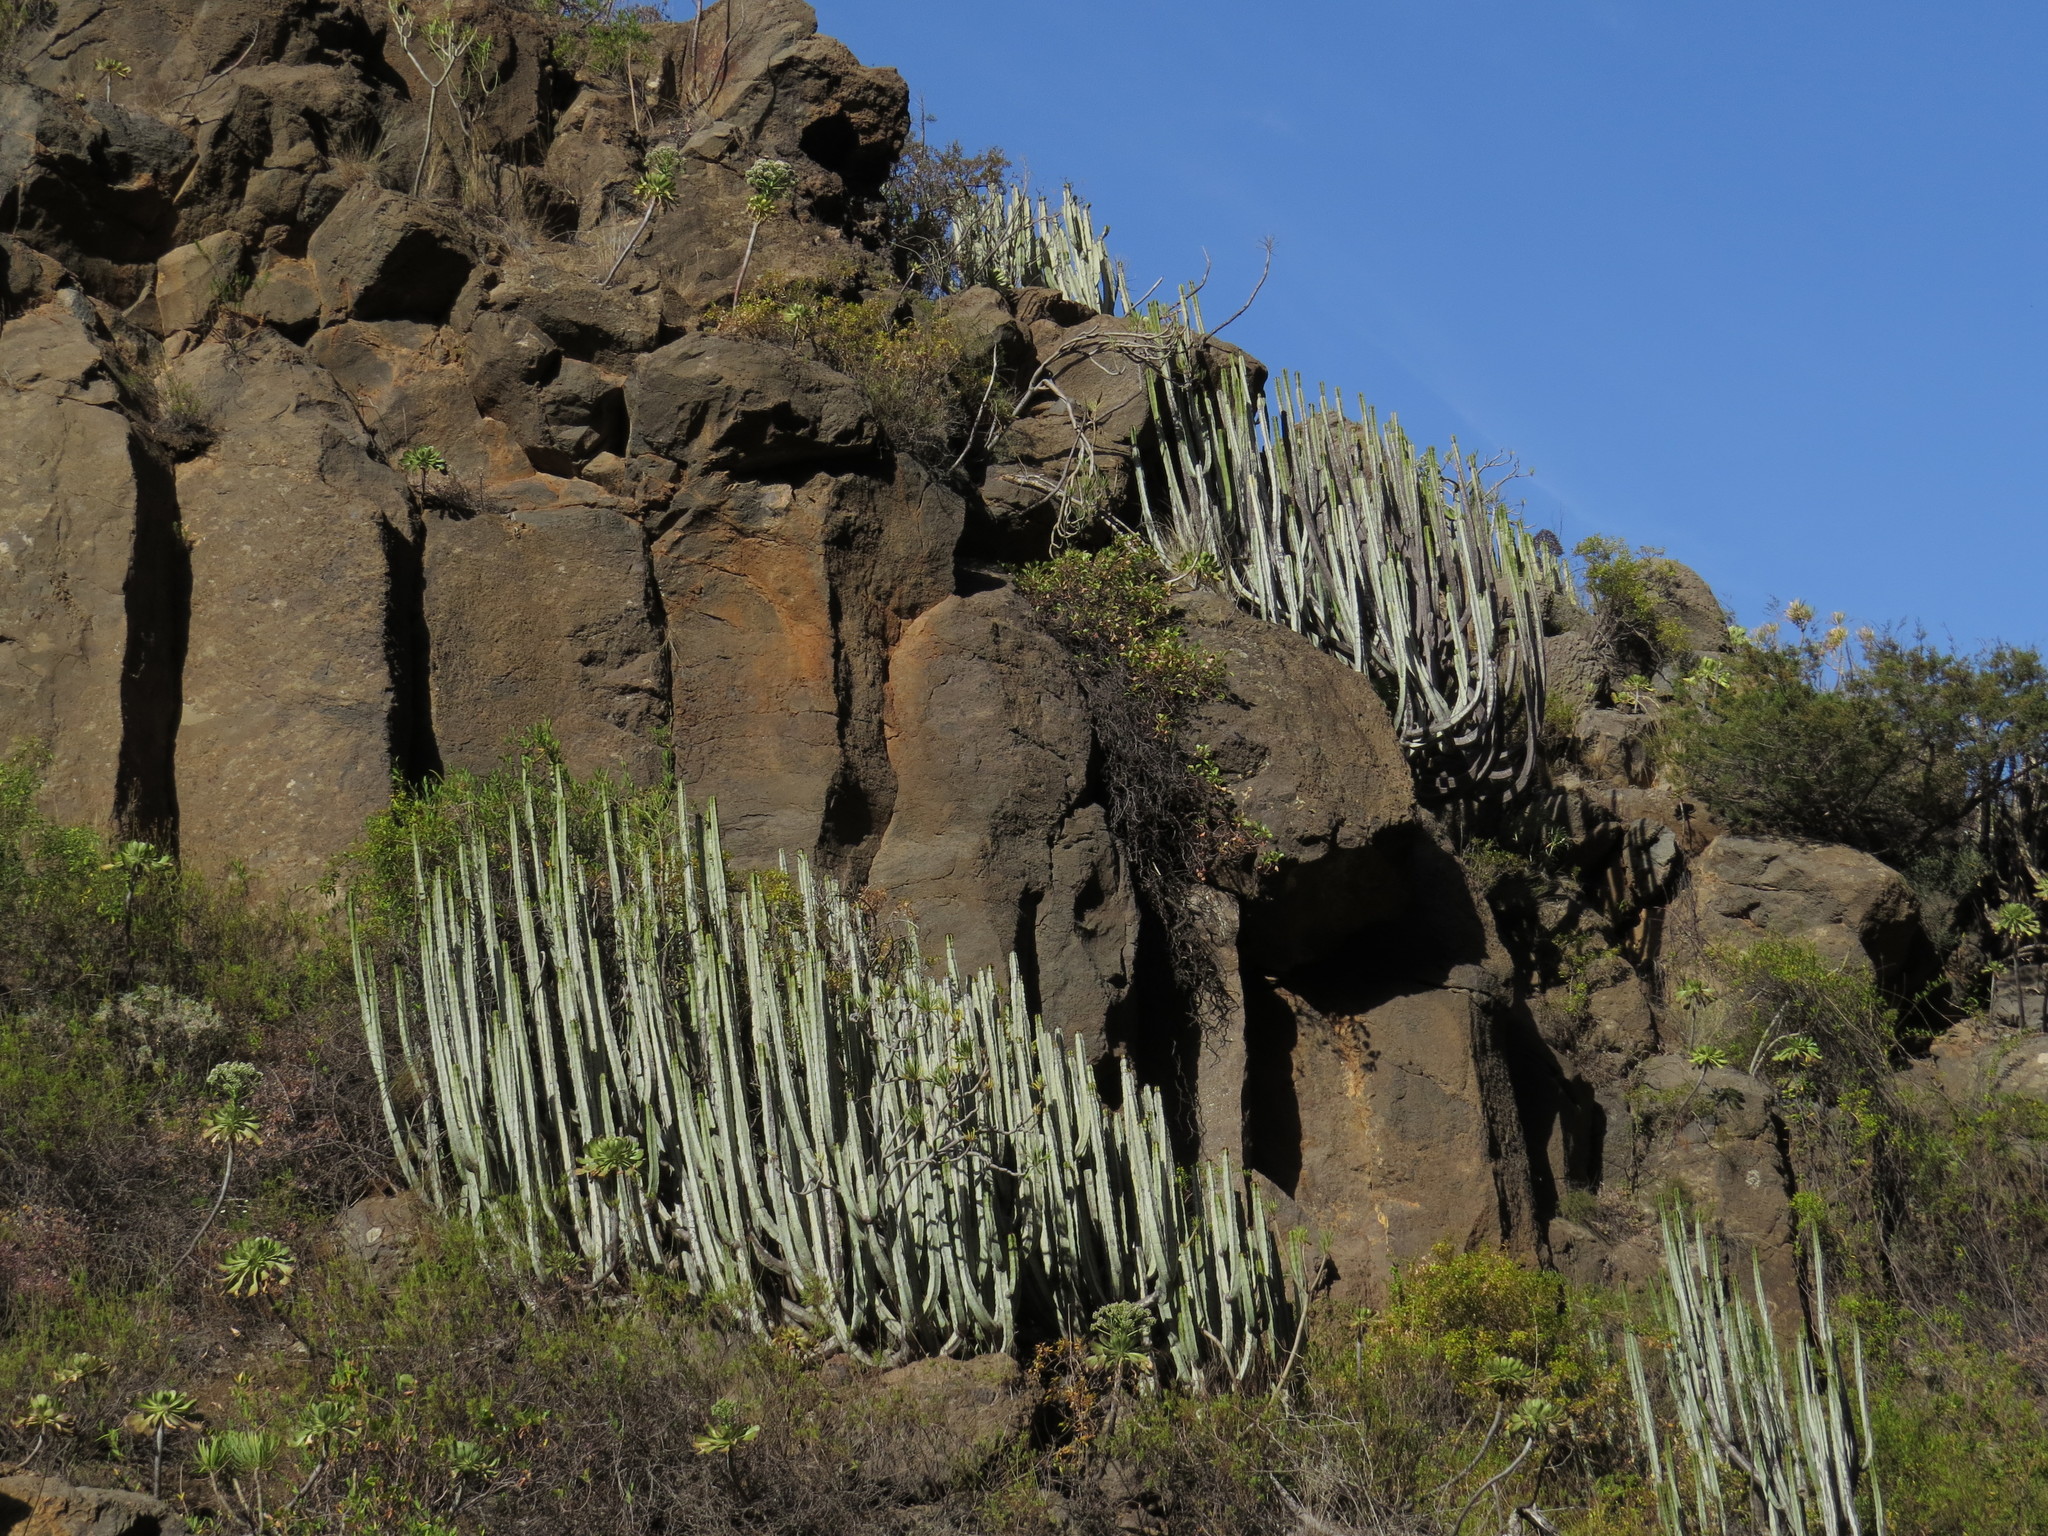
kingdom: Plantae
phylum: Tracheophyta
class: Magnoliopsida
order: Malpighiales
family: Euphorbiaceae
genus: Euphorbia
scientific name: Euphorbia canariensis
